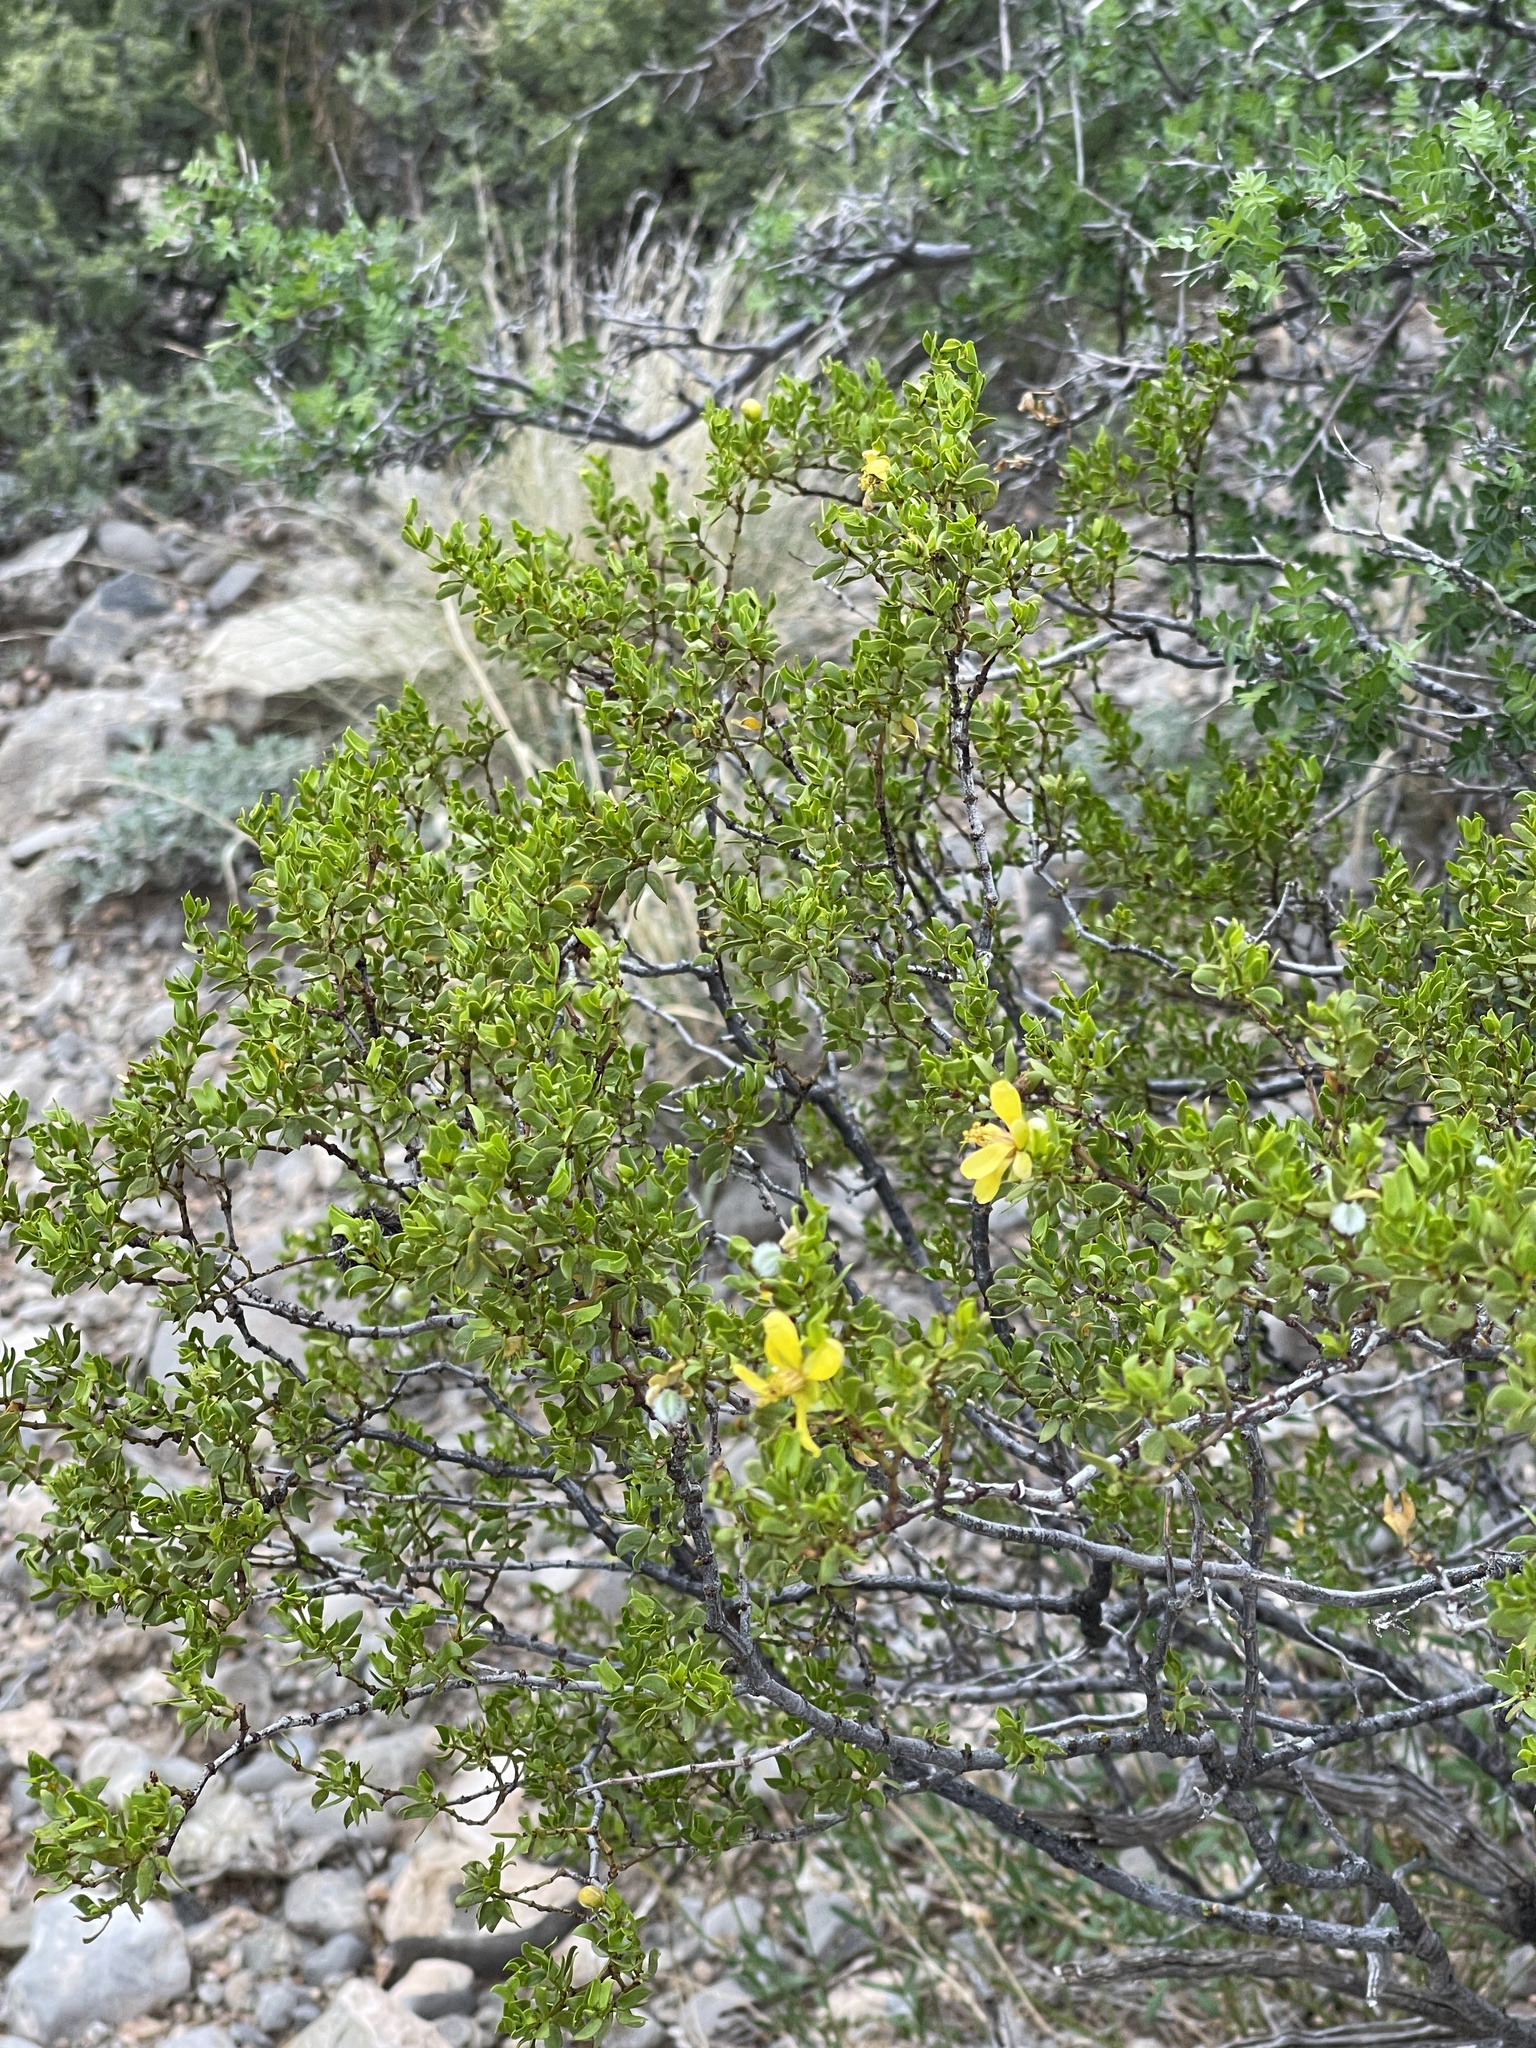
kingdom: Plantae
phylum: Tracheophyta
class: Magnoliopsida
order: Zygophyllales
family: Zygophyllaceae
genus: Larrea
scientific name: Larrea tridentata
